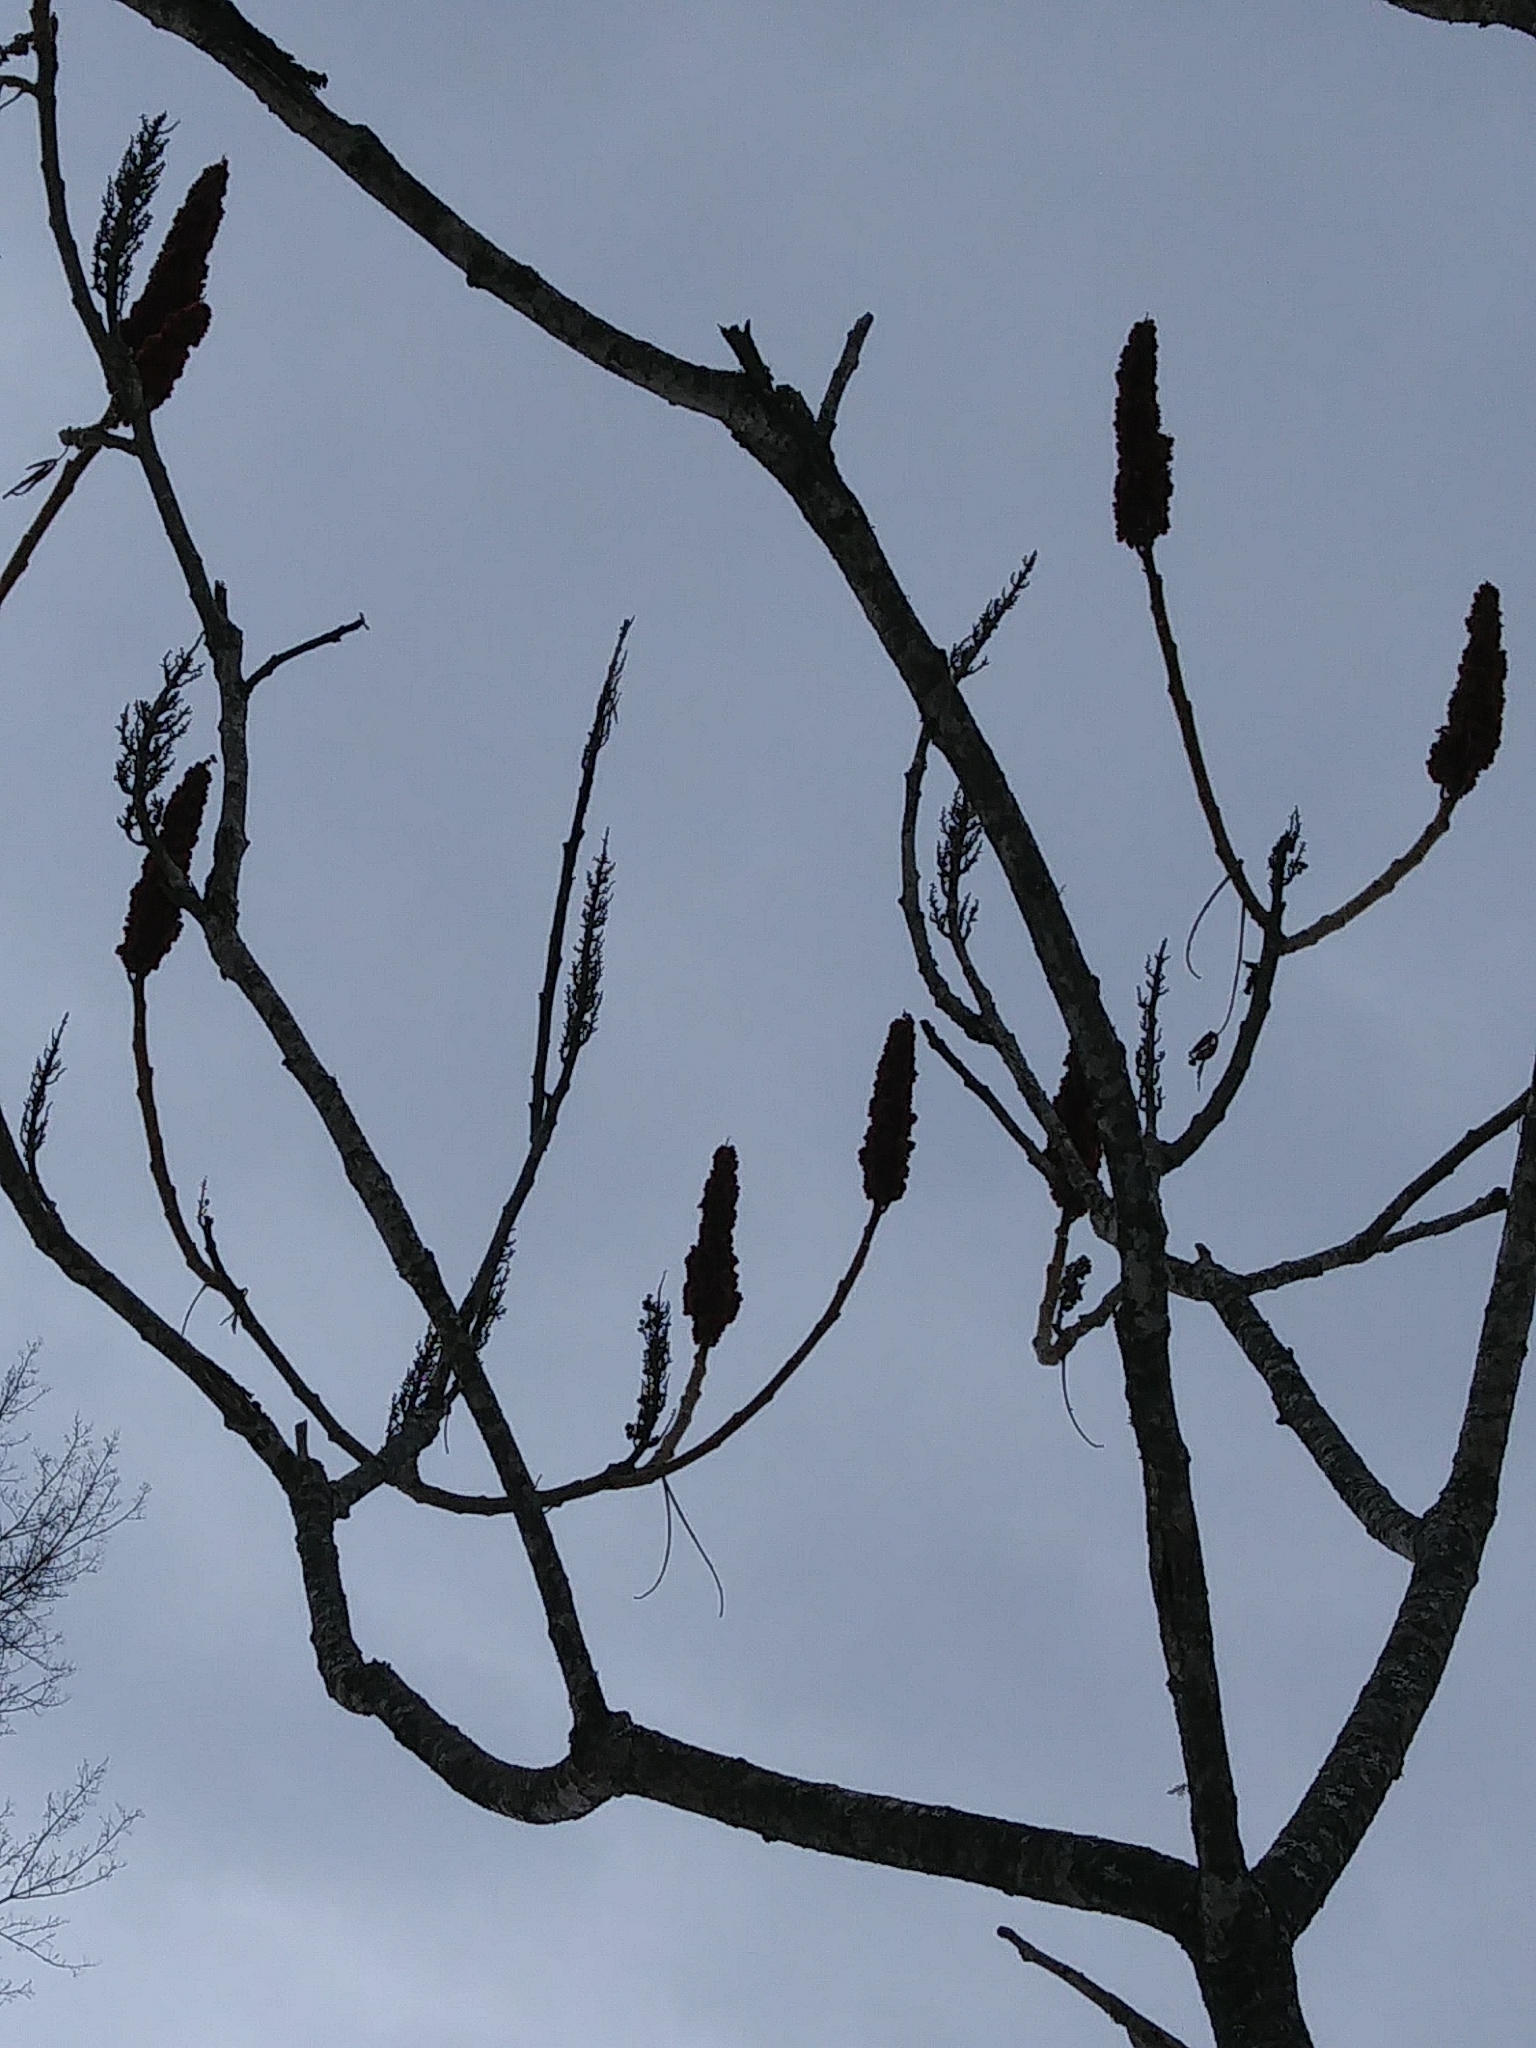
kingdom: Plantae
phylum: Tracheophyta
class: Magnoliopsida
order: Sapindales
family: Anacardiaceae
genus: Rhus
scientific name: Rhus typhina
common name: Staghorn sumac
